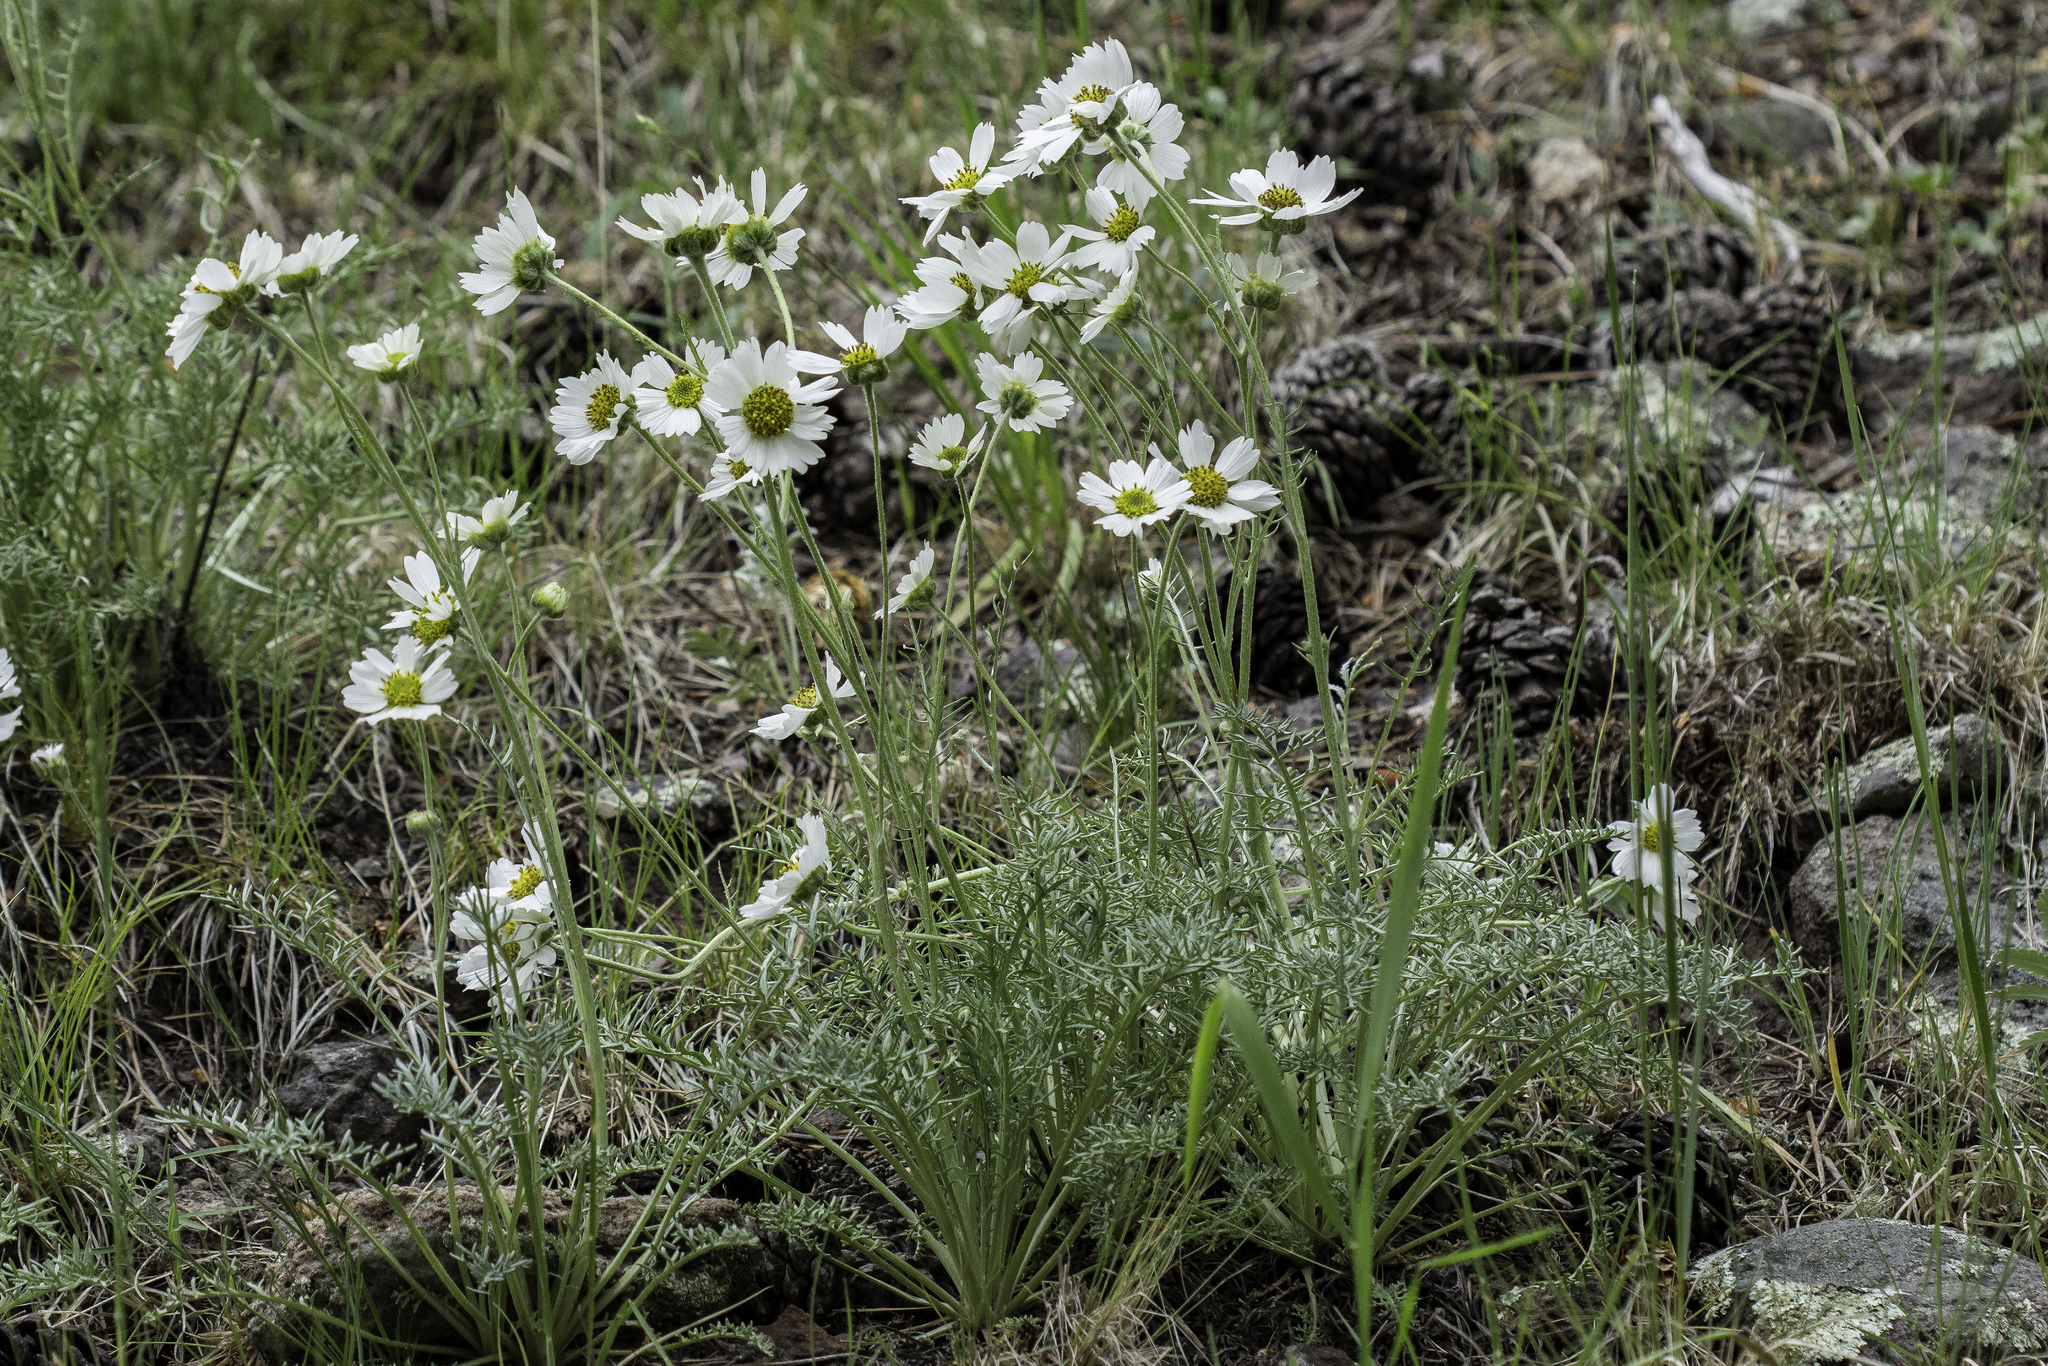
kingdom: Plantae
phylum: Tracheophyta
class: Magnoliopsida
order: Asterales
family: Asteraceae
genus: Hymenopappus
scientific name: Hymenopappus newberryi
